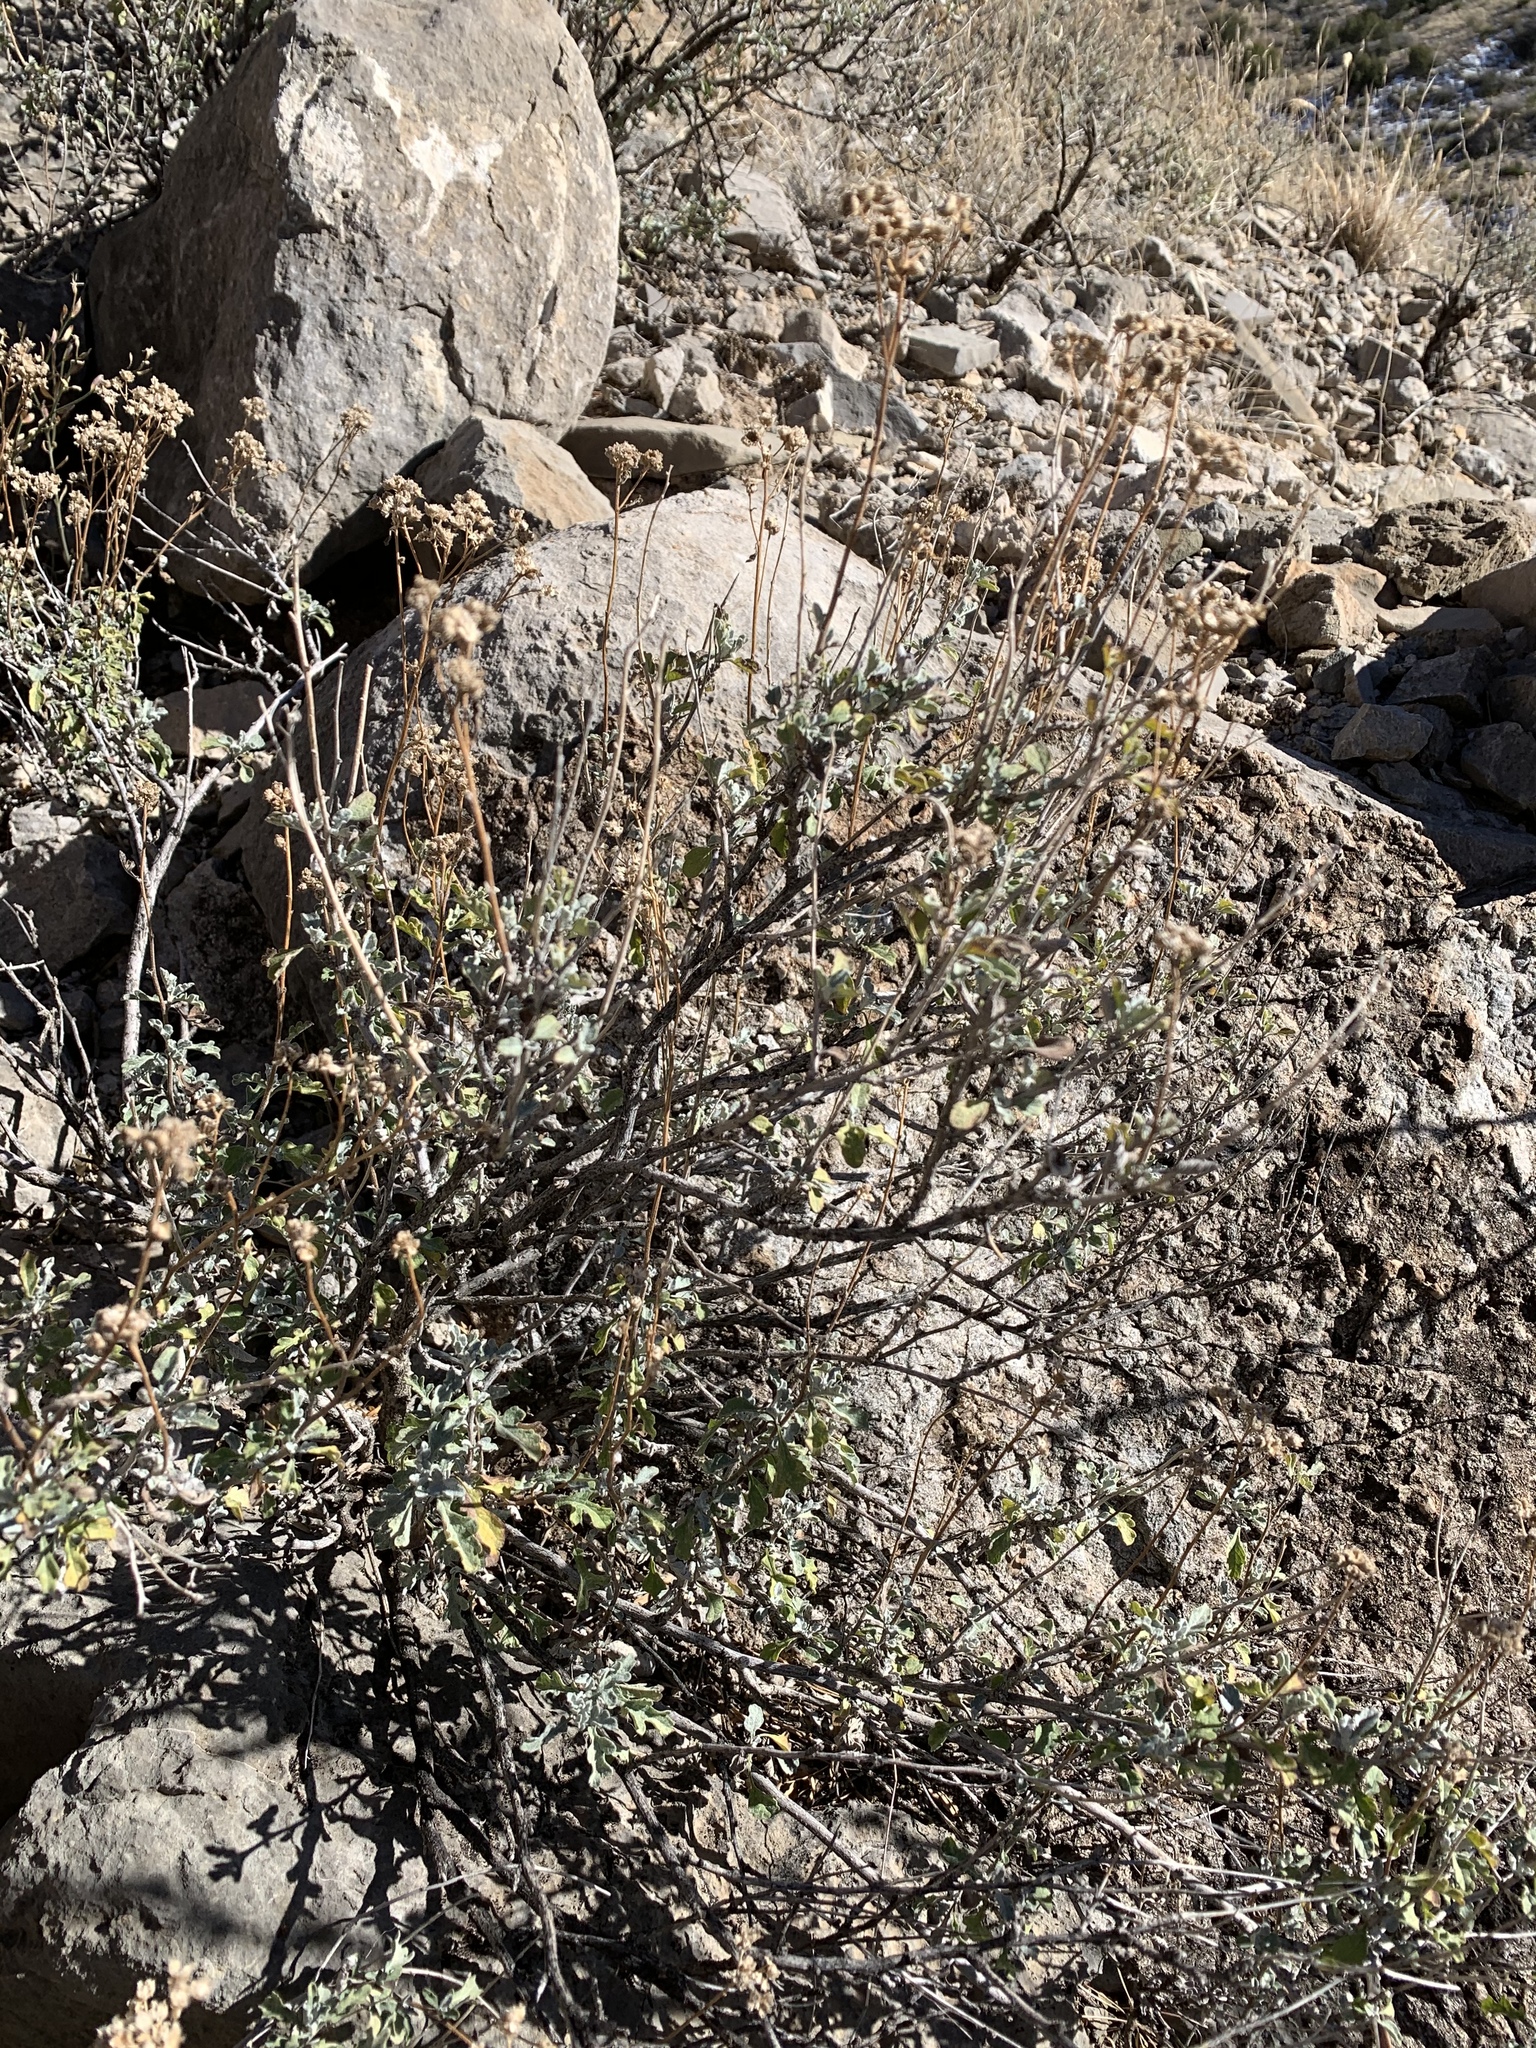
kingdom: Plantae
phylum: Tracheophyta
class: Magnoliopsida
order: Asterales
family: Asteraceae
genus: Parthenium
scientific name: Parthenium incanum
